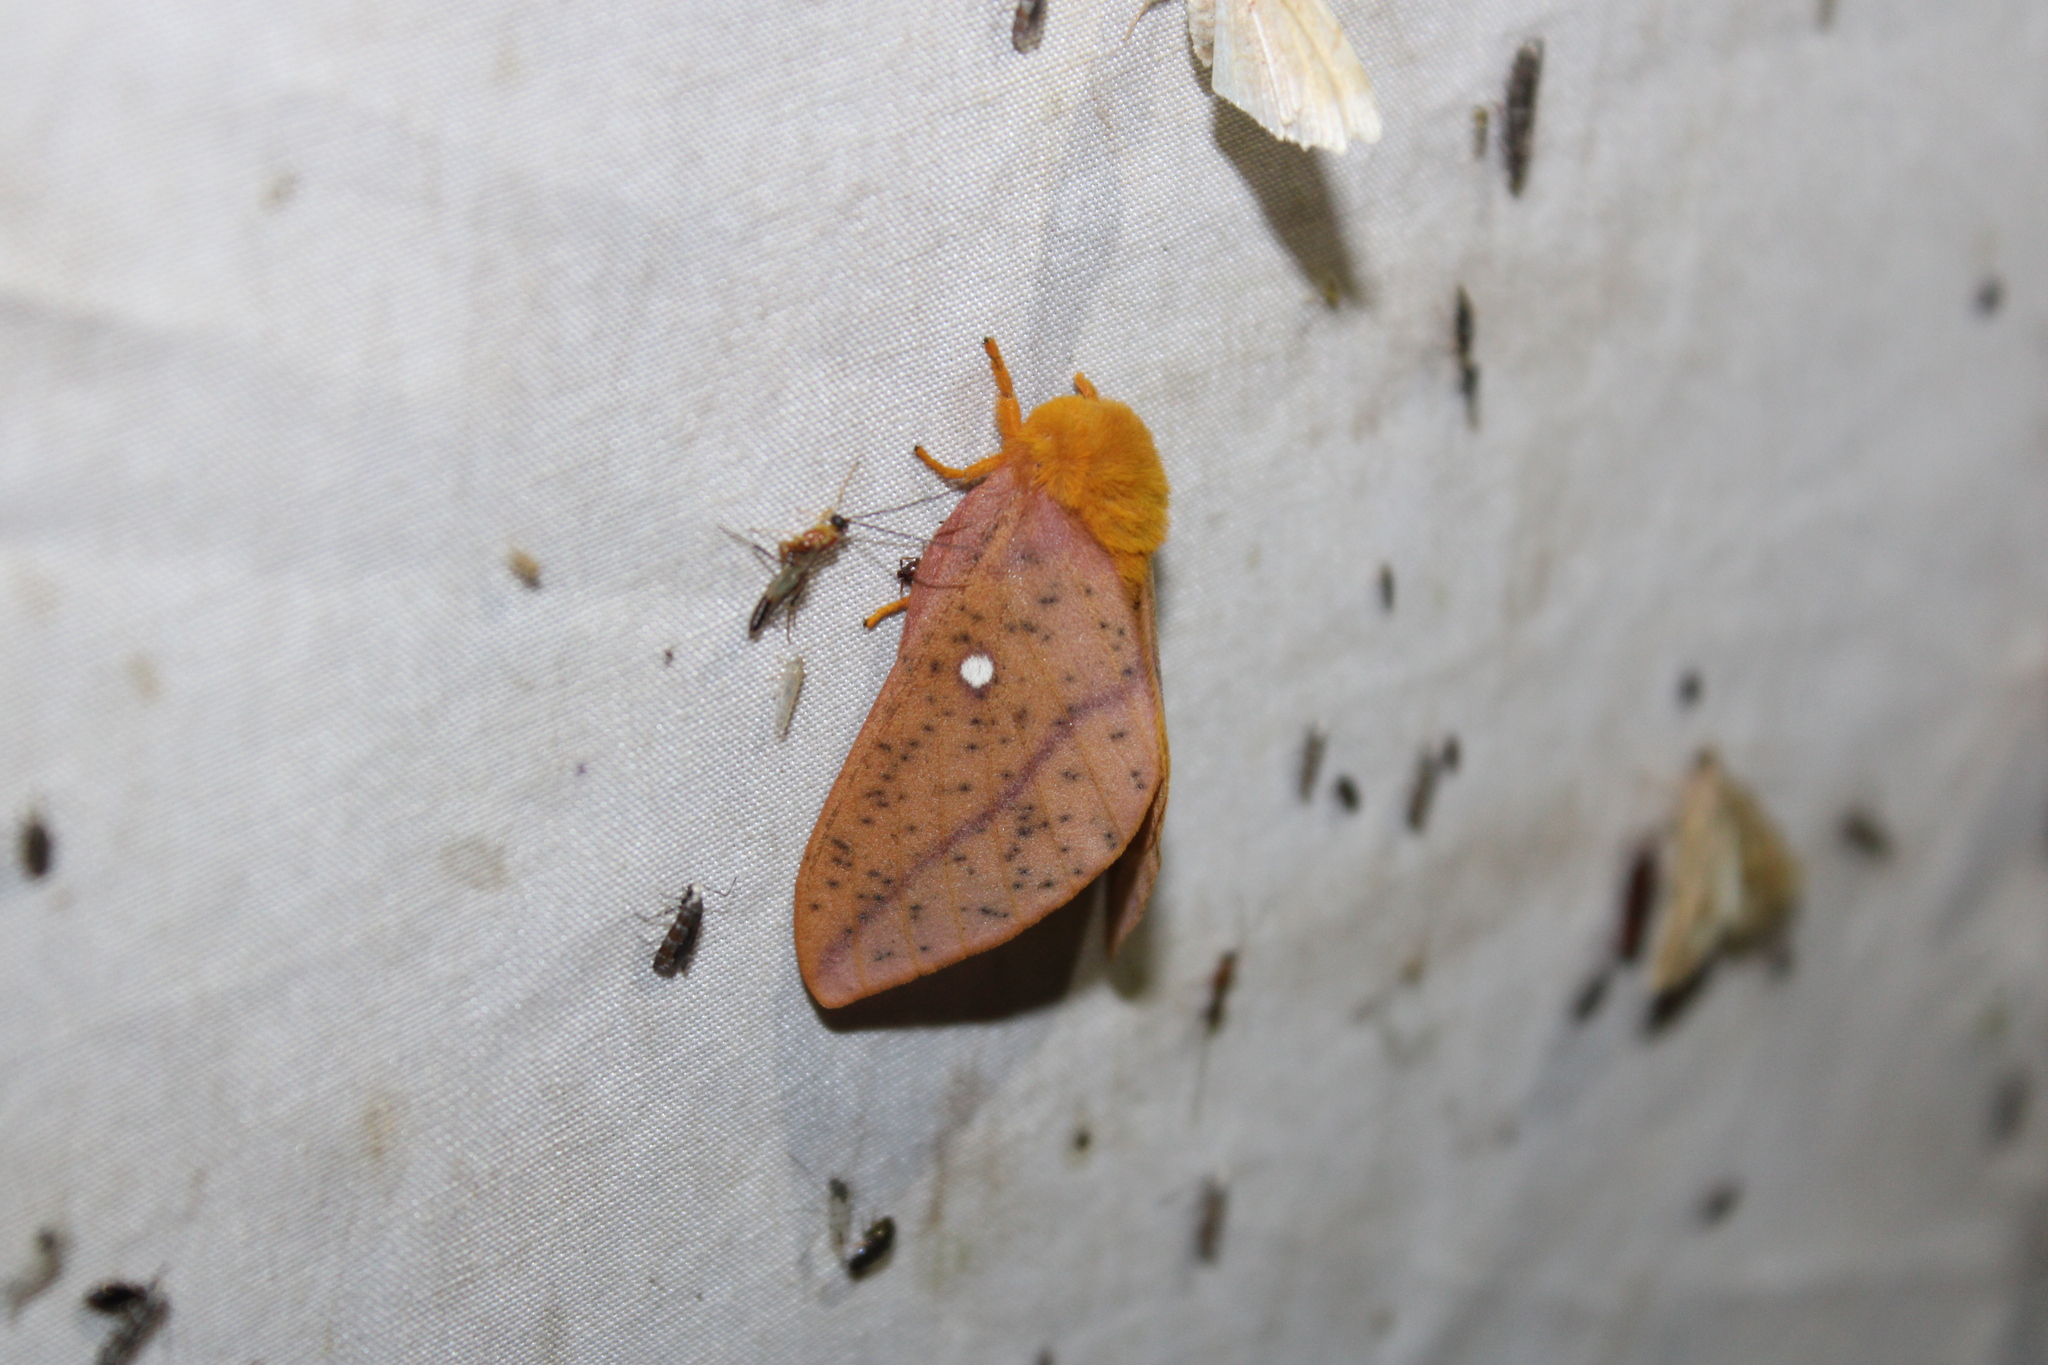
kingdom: Animalia
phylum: Arthropoda
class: Insecta
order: Lepidoptera
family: Saturniidae
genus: Anisota
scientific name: Anisota stigma
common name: Spiny oakworm moth
